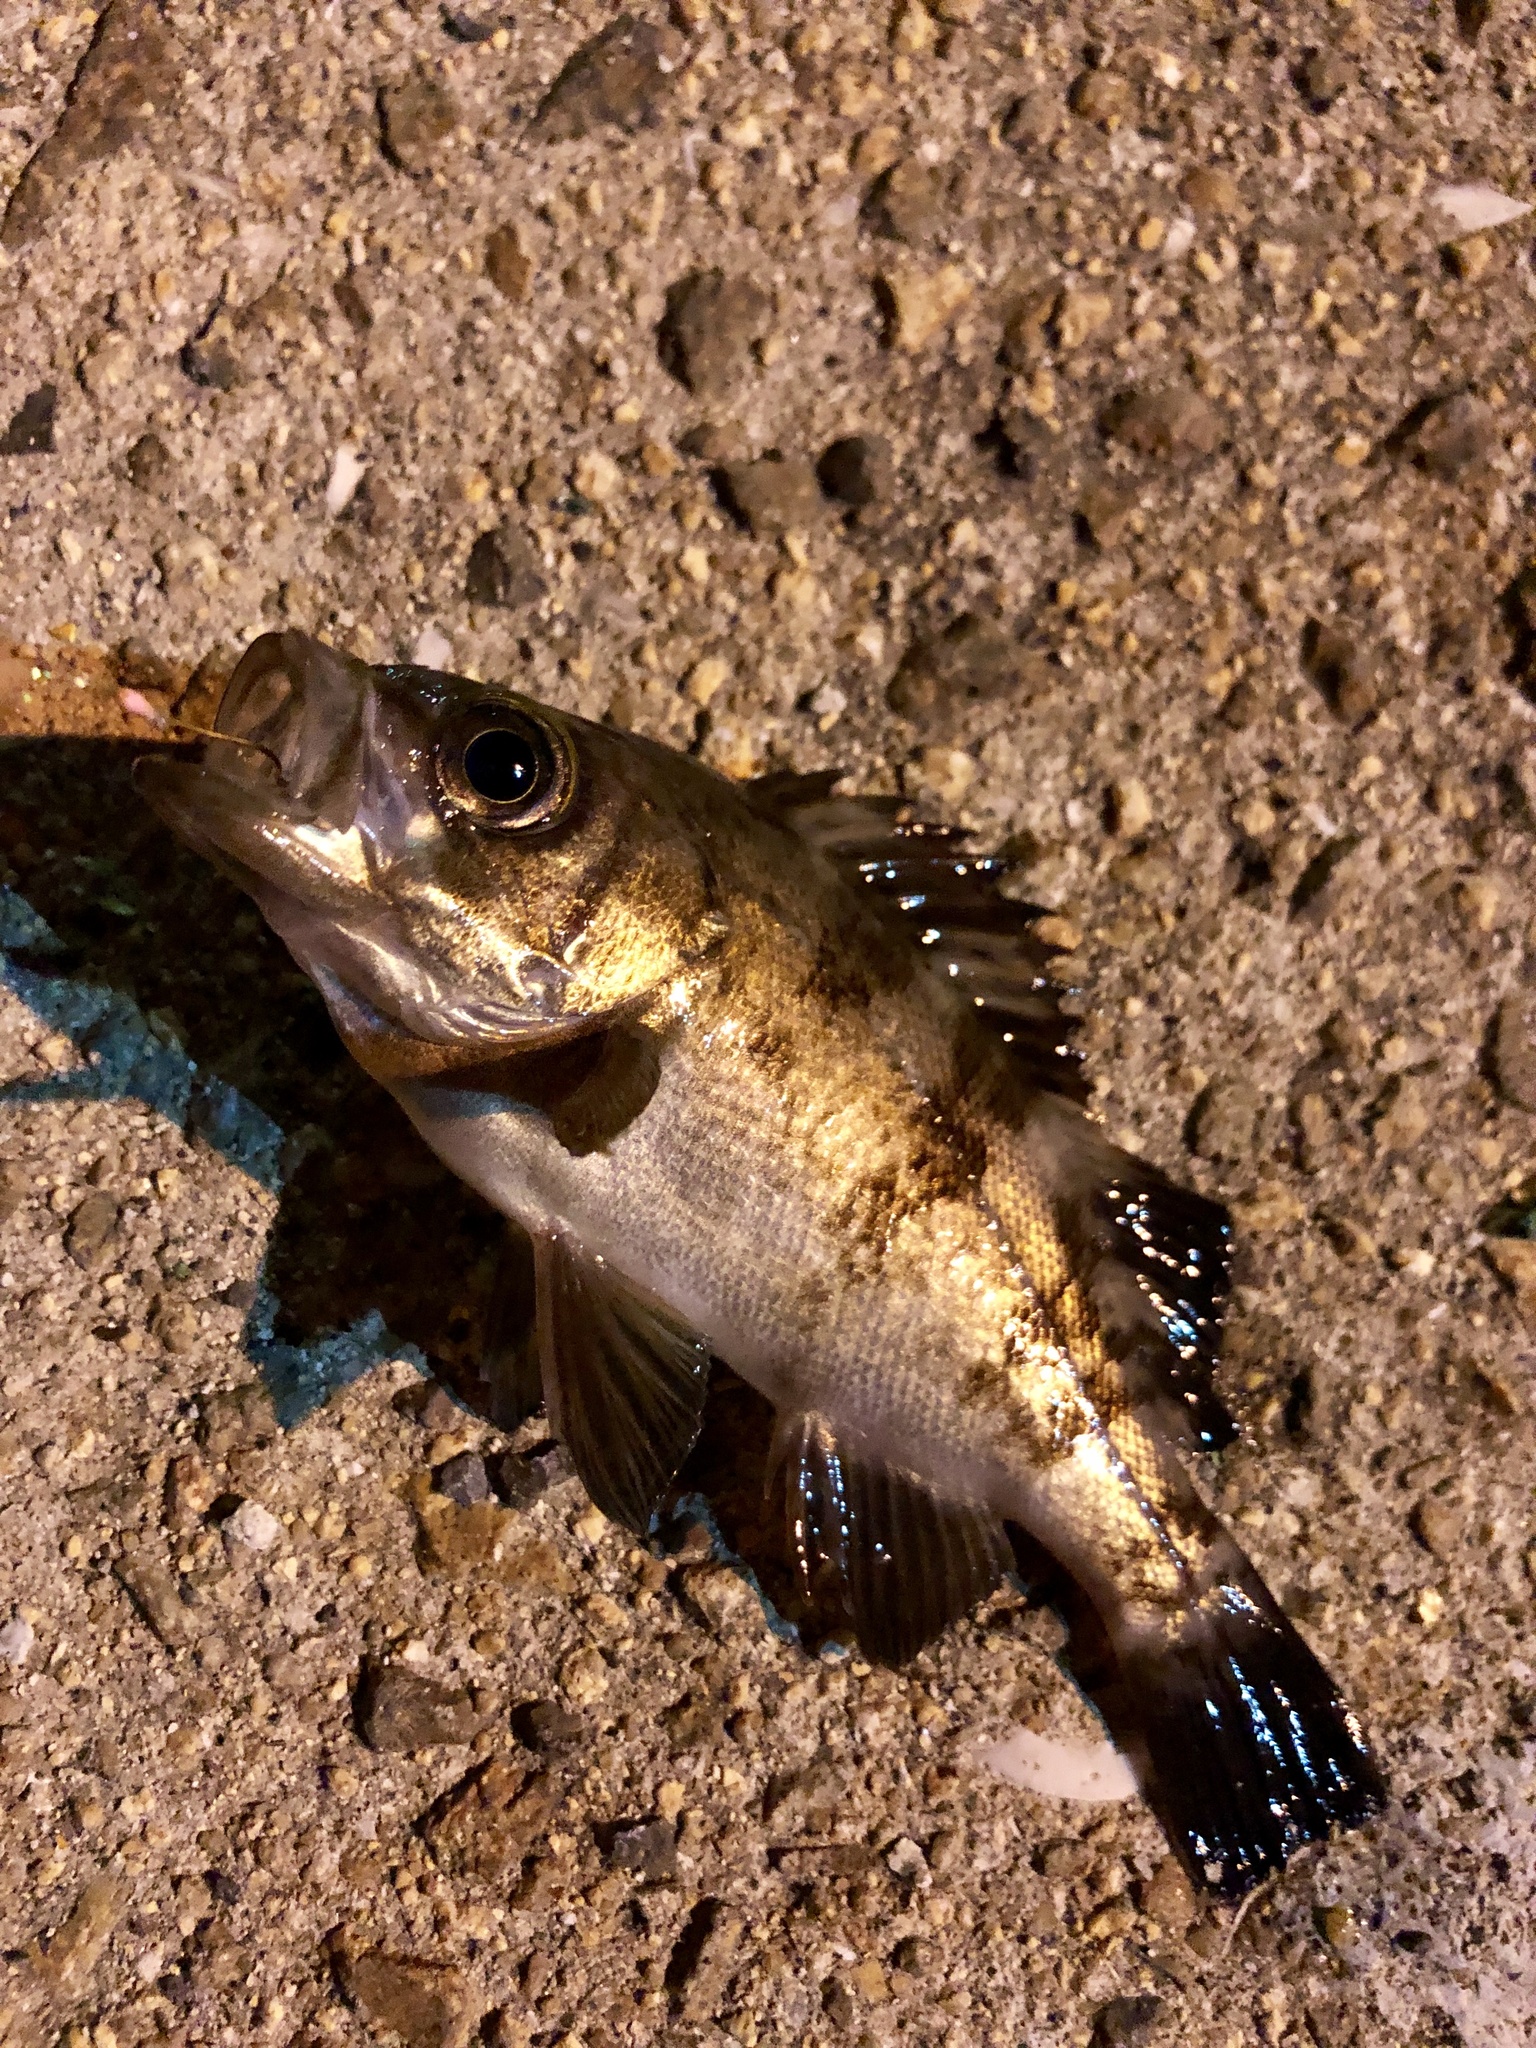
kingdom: Animalia
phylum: Chordata
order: Scorpaeniformes
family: Sebastidae
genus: Sebastes
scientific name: Sebastes cheni
